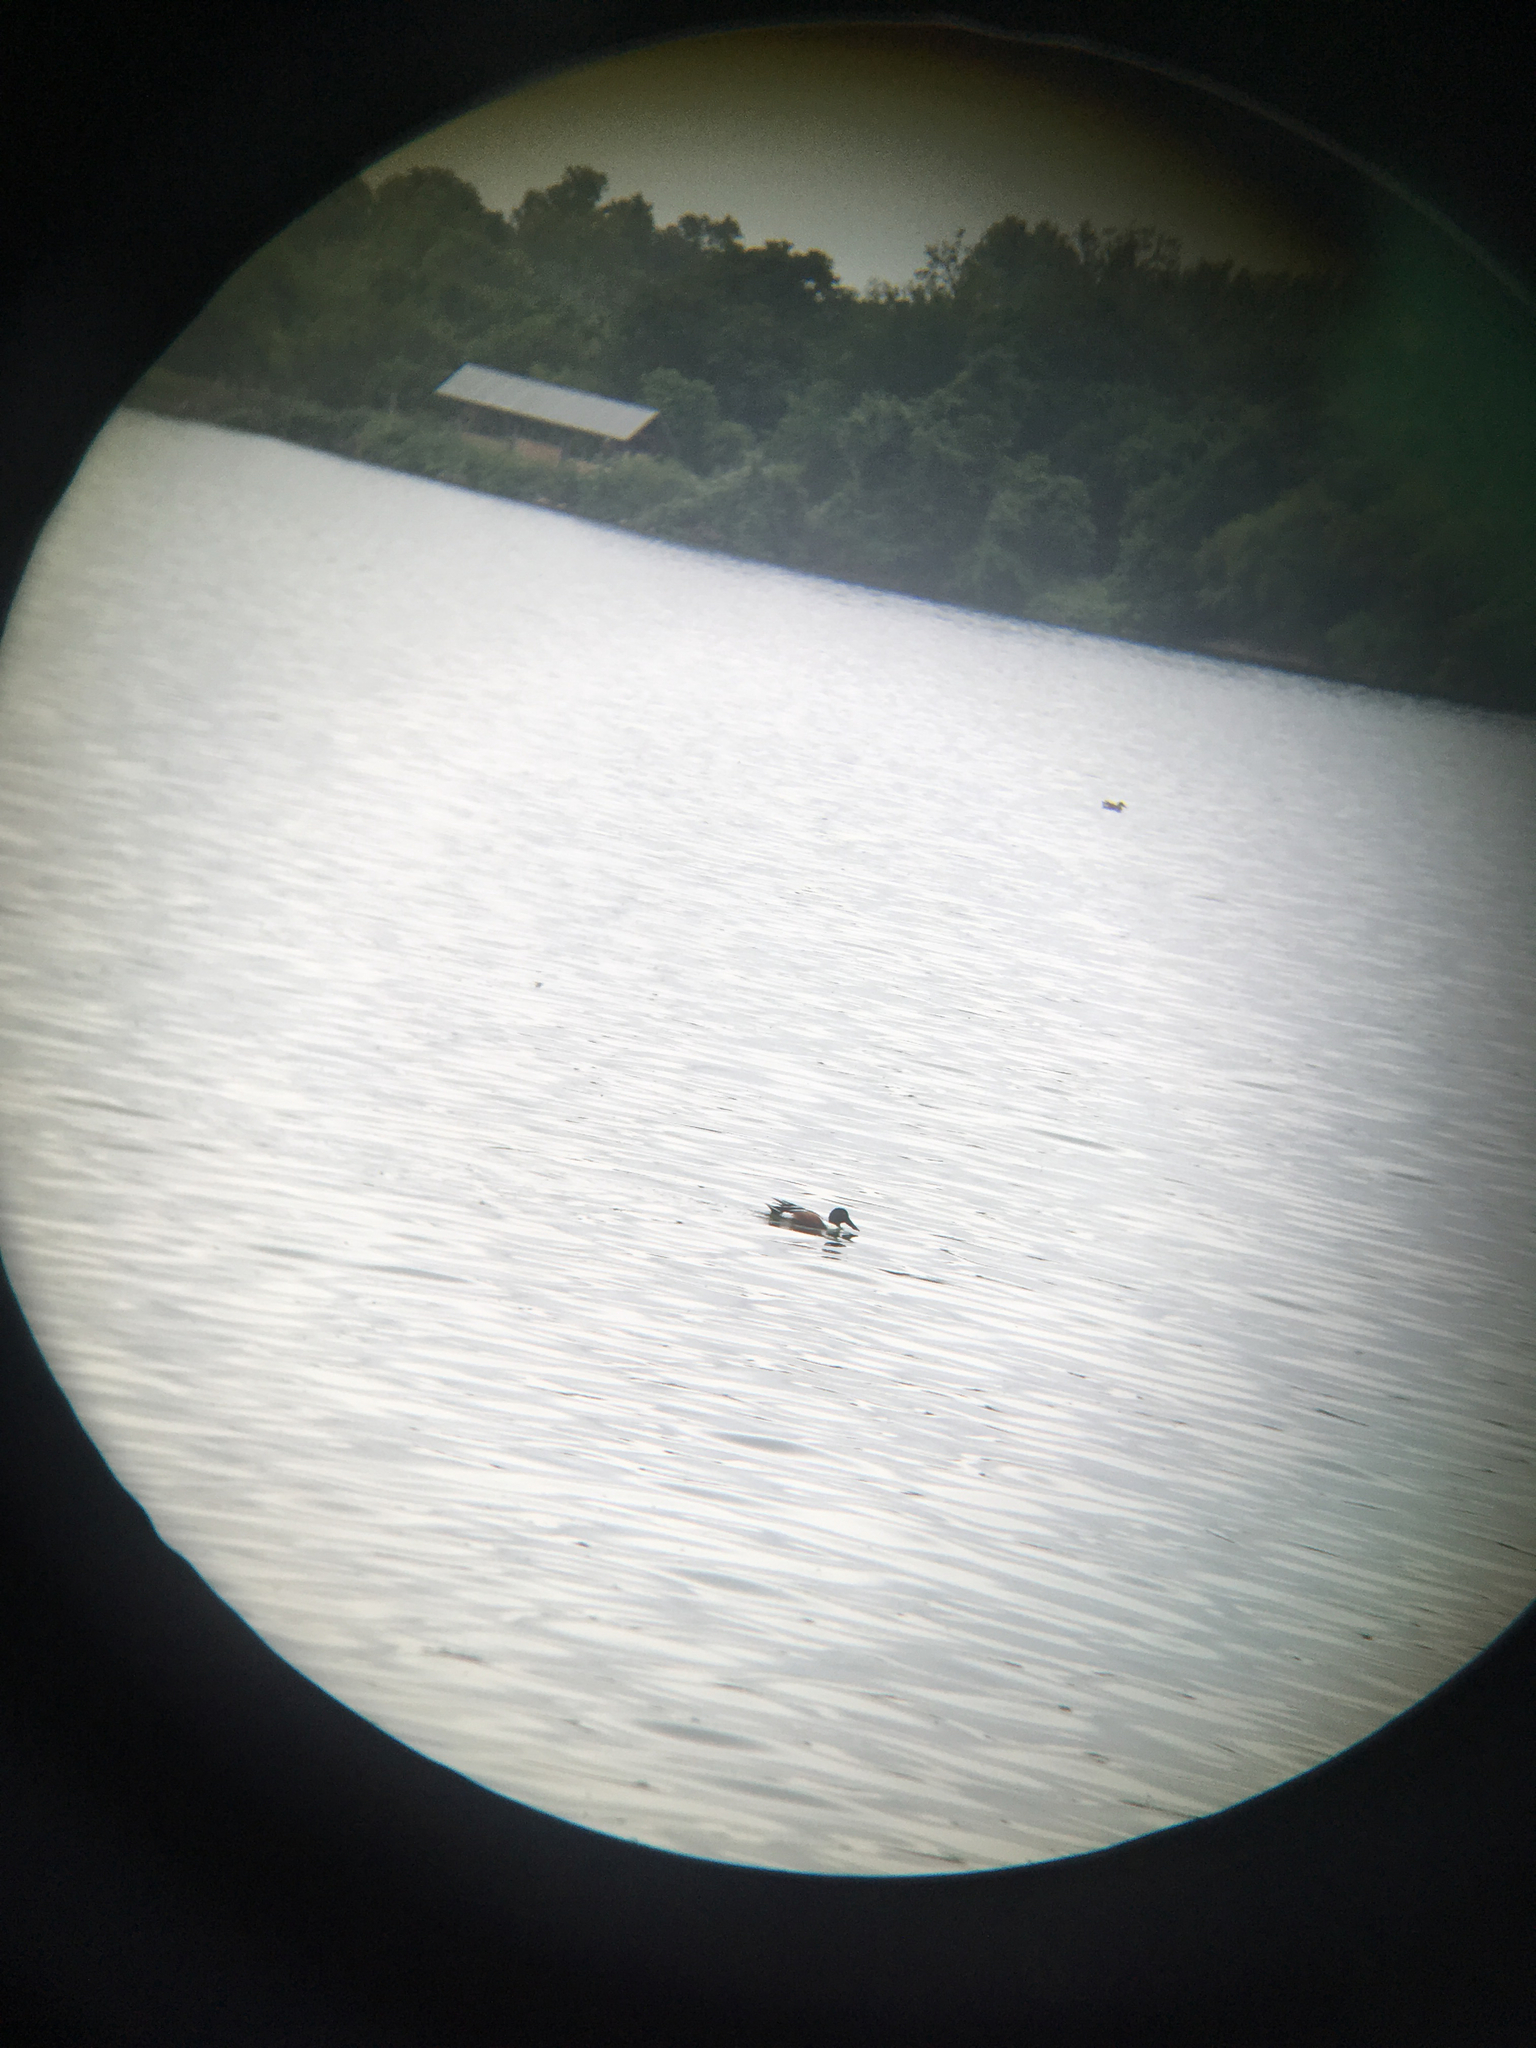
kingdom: Animalia
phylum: Chordata
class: Aves
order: Anseriformes
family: Anatidae
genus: Spatula
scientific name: Spatula clypeata
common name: Northern shoveler
